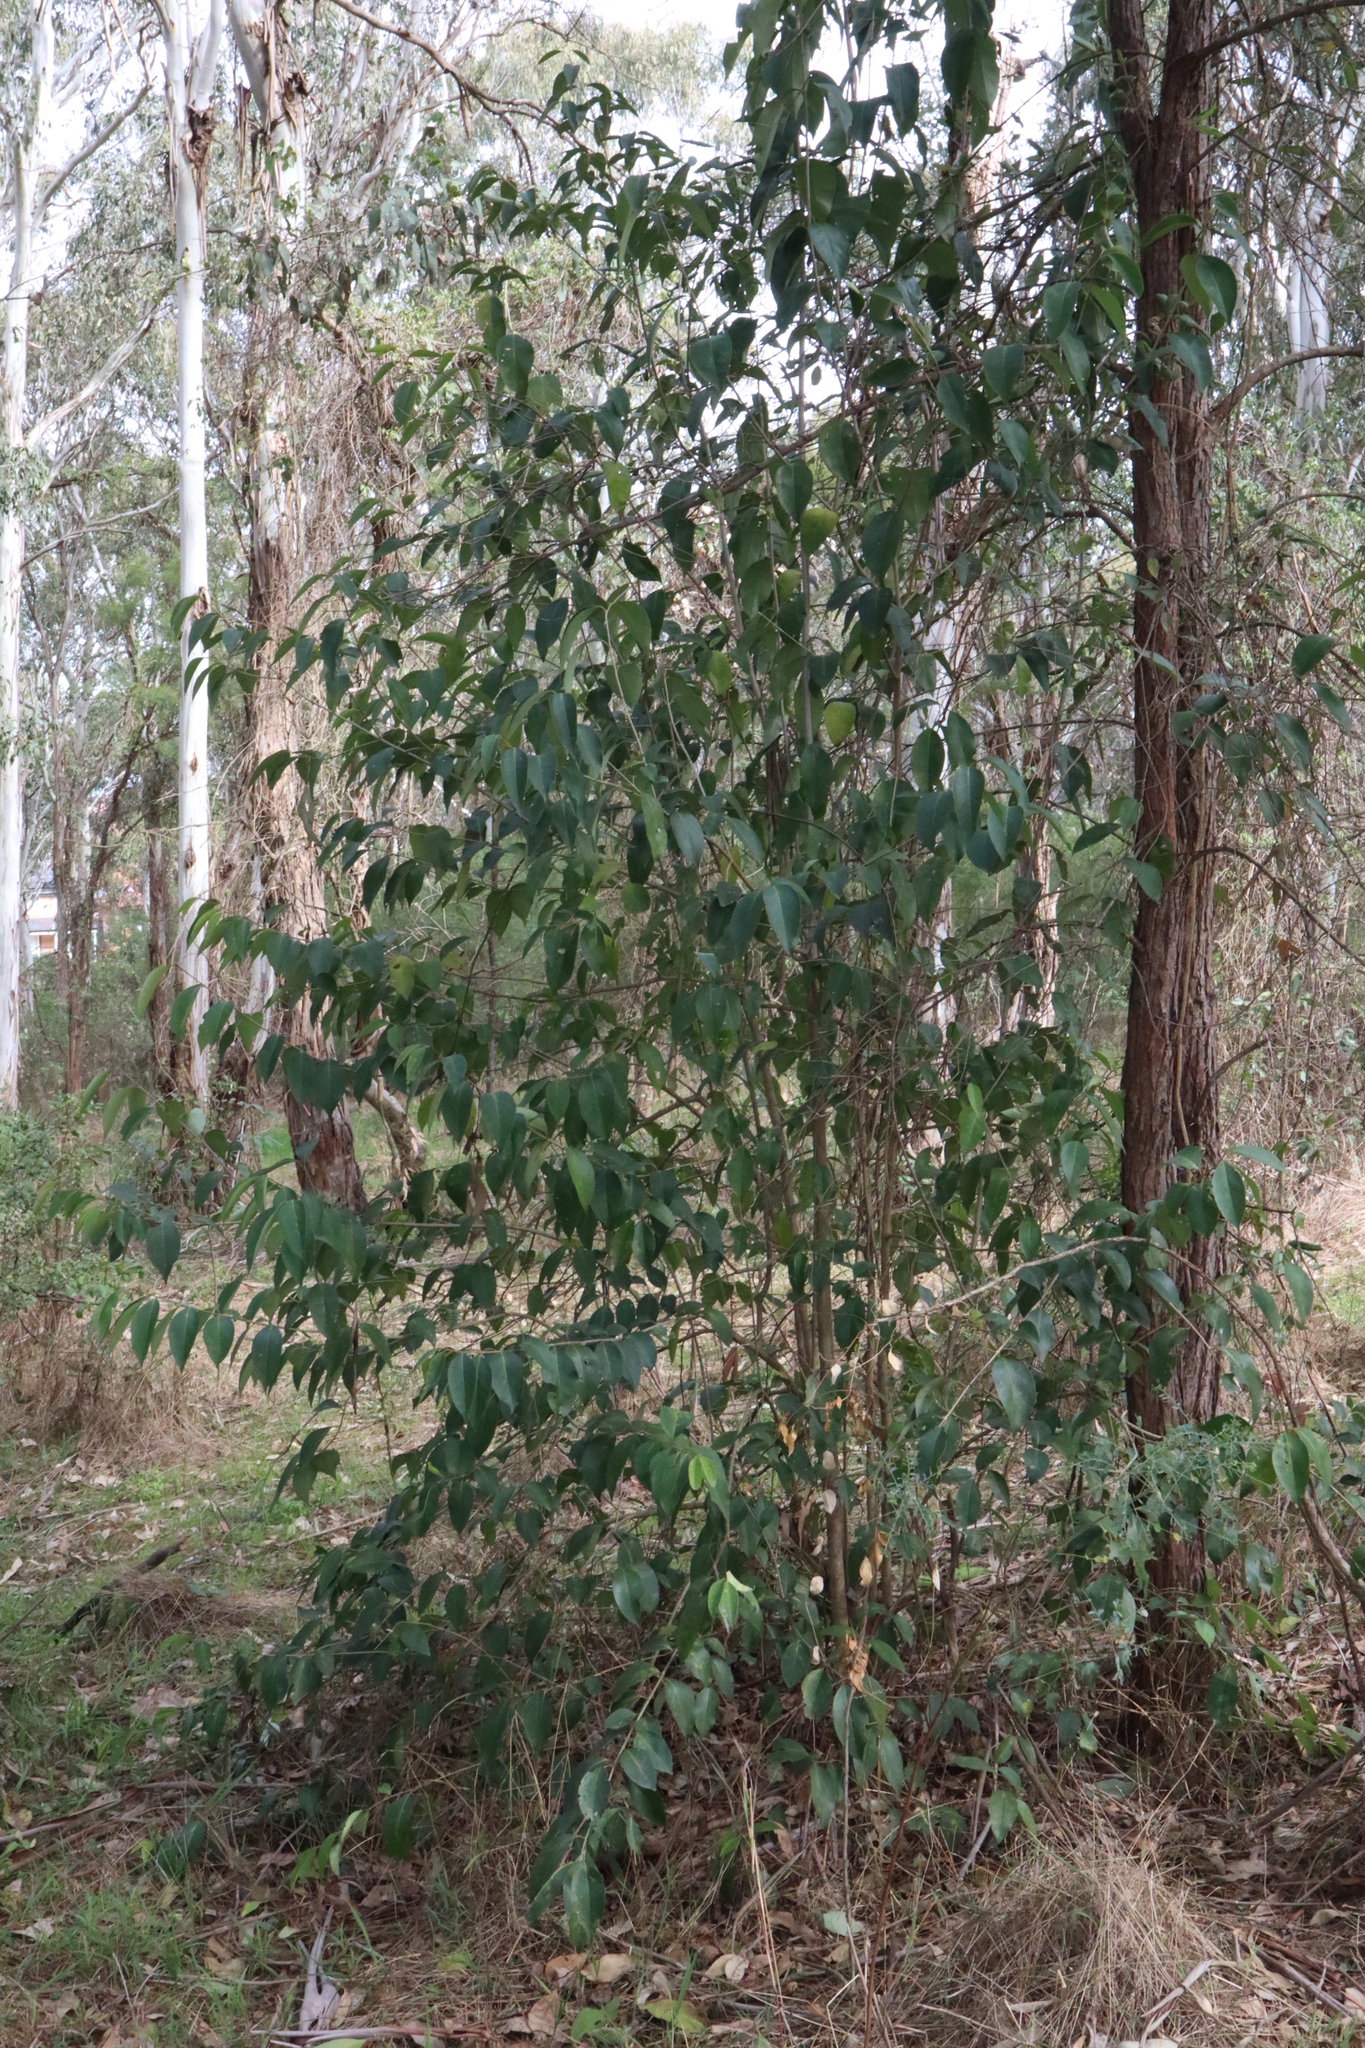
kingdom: Plantae
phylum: Tracheophyta
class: Magnoliopsida
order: Lamiales
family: Oleaceae
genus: Ligustrum
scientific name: Ligustrum lucidum
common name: Glossy privet
